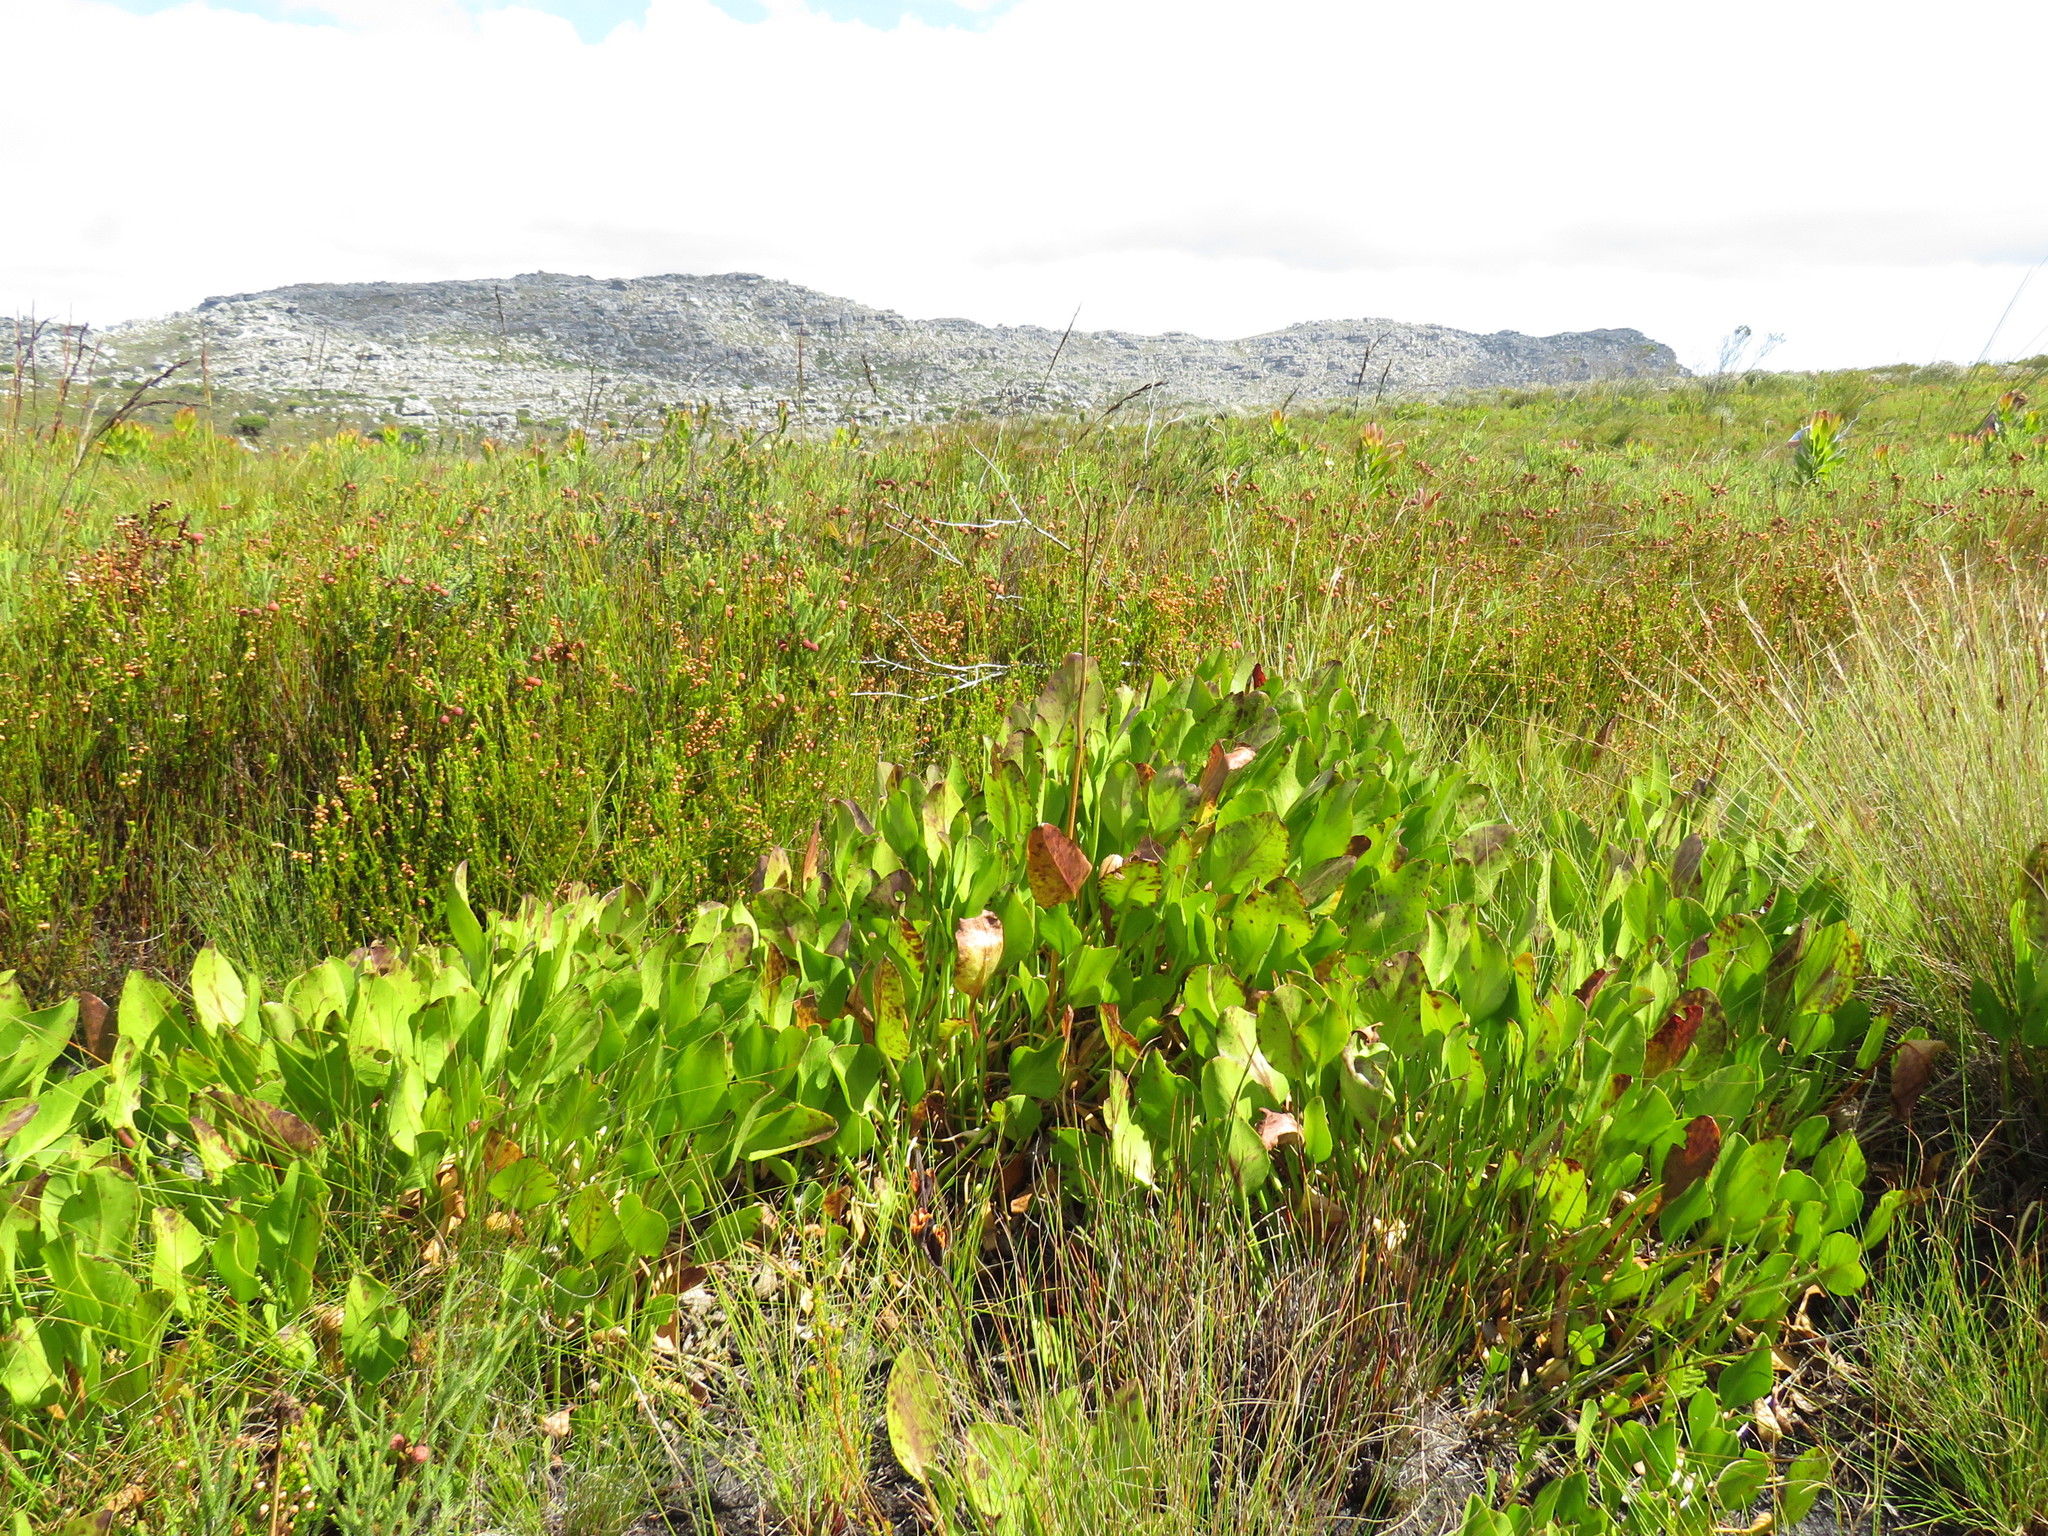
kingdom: Plantae
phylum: Tracheophyta
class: Magnoliopsida
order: Asterales
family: Menyanthaceae
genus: Villarsia
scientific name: Villarsia goldblattiana
